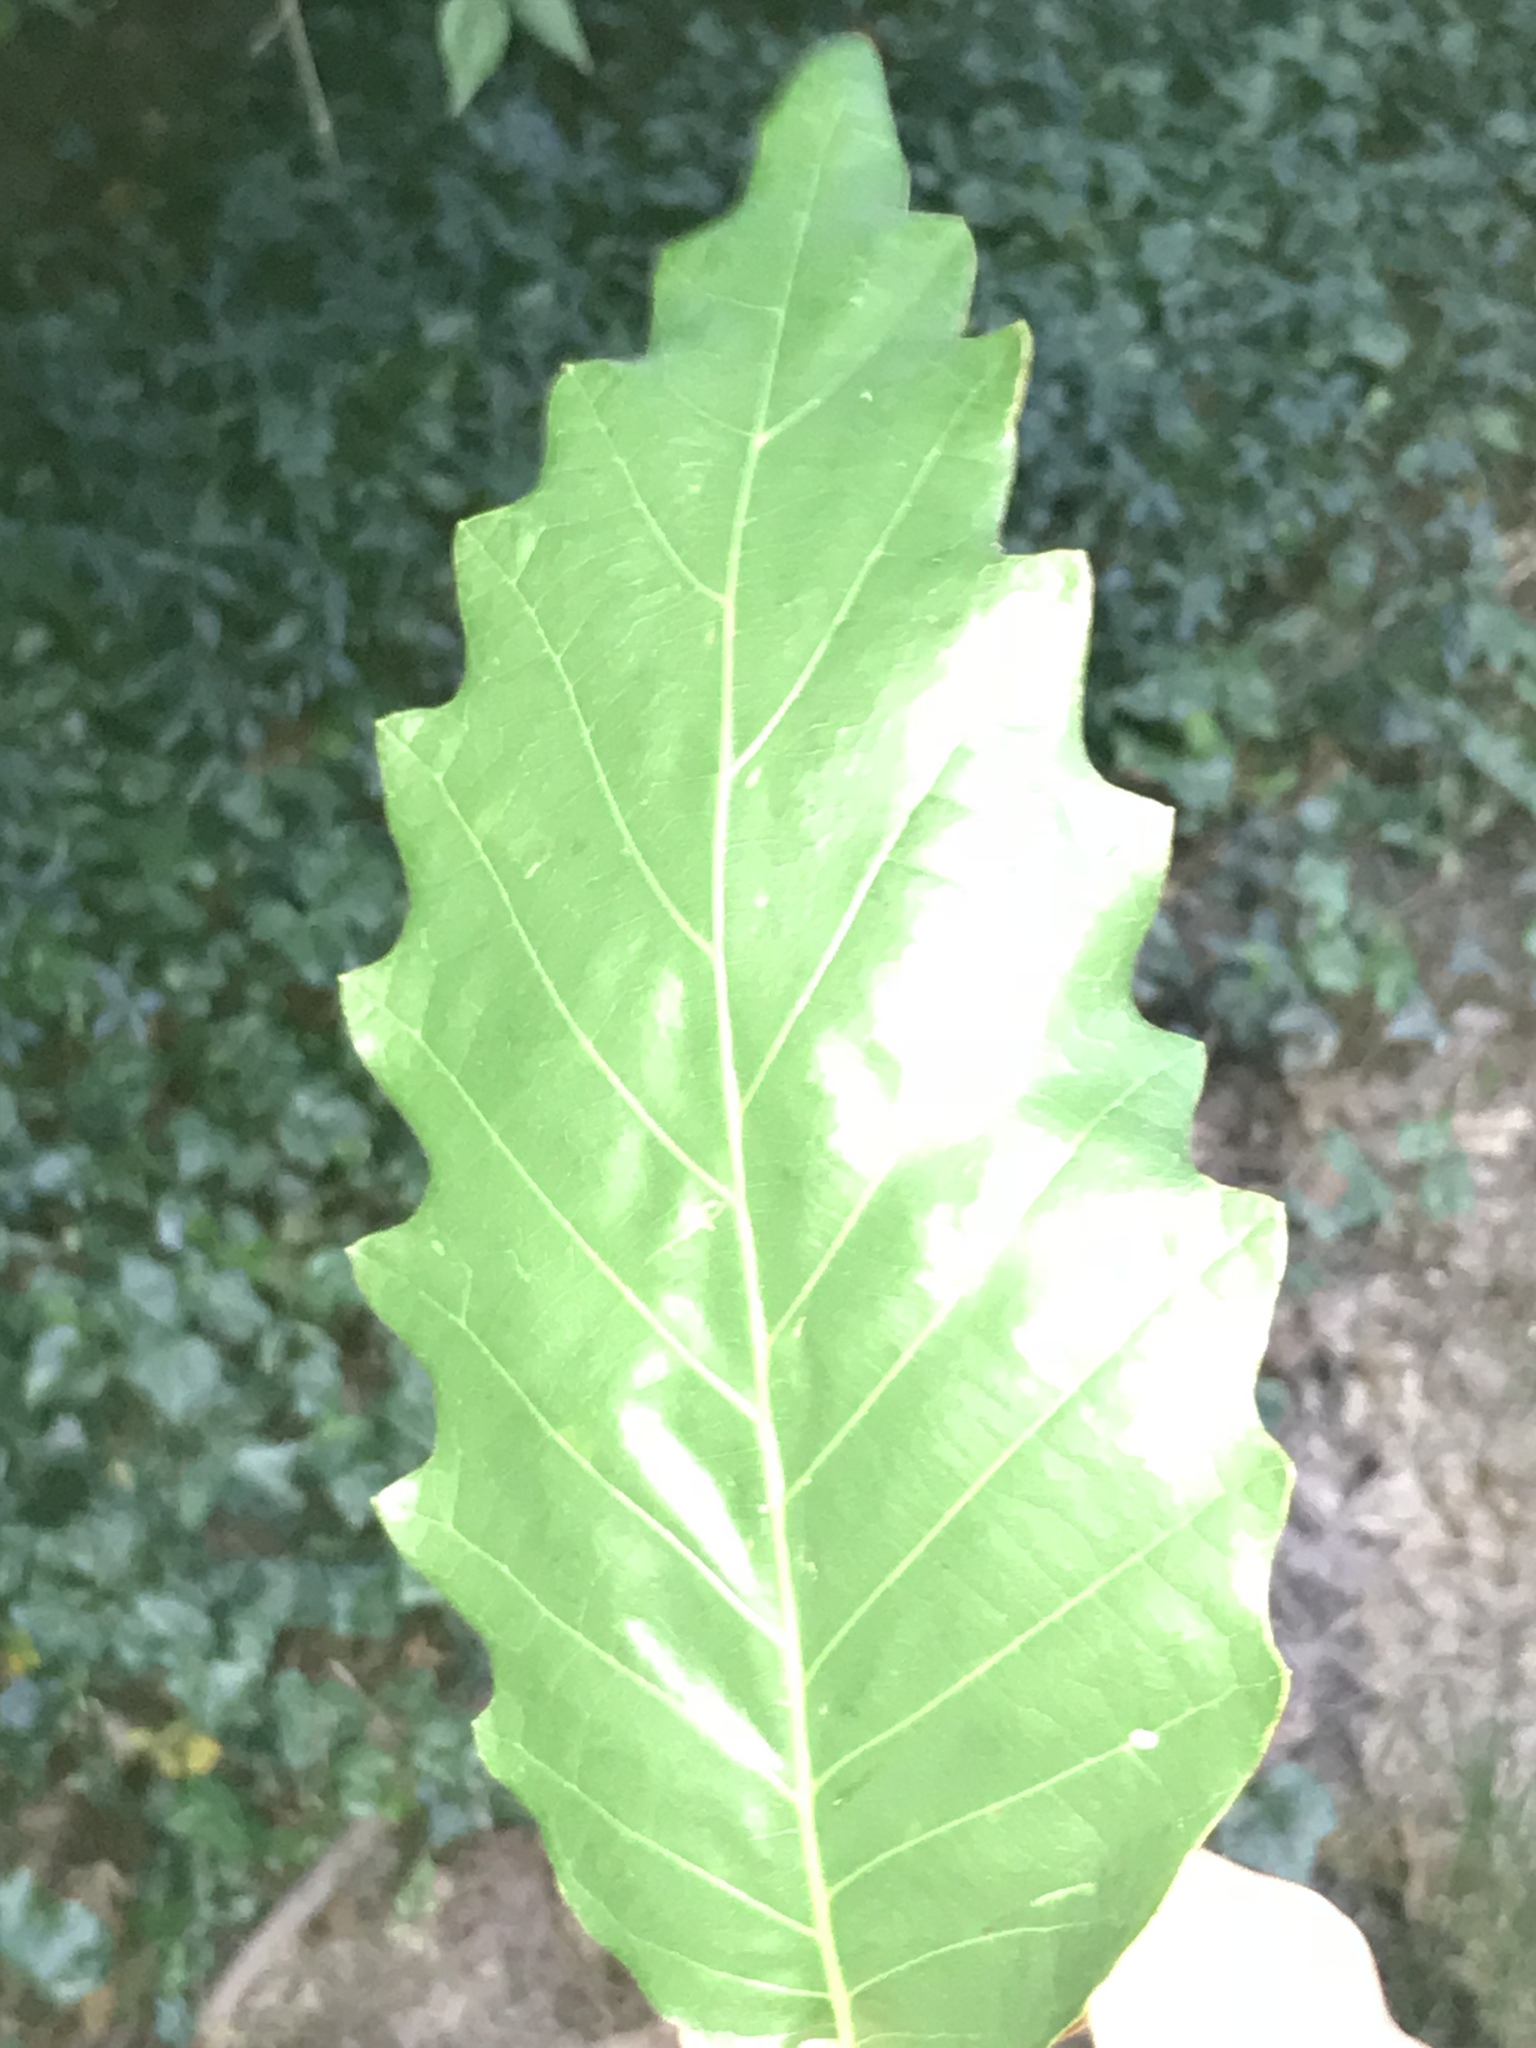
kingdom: Plantae
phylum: Tracheophyta
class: Magnoliopsida
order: Fagales
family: Fagaceae
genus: Quercus
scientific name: Quercus muehlenbergii
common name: Chinkapin oak
